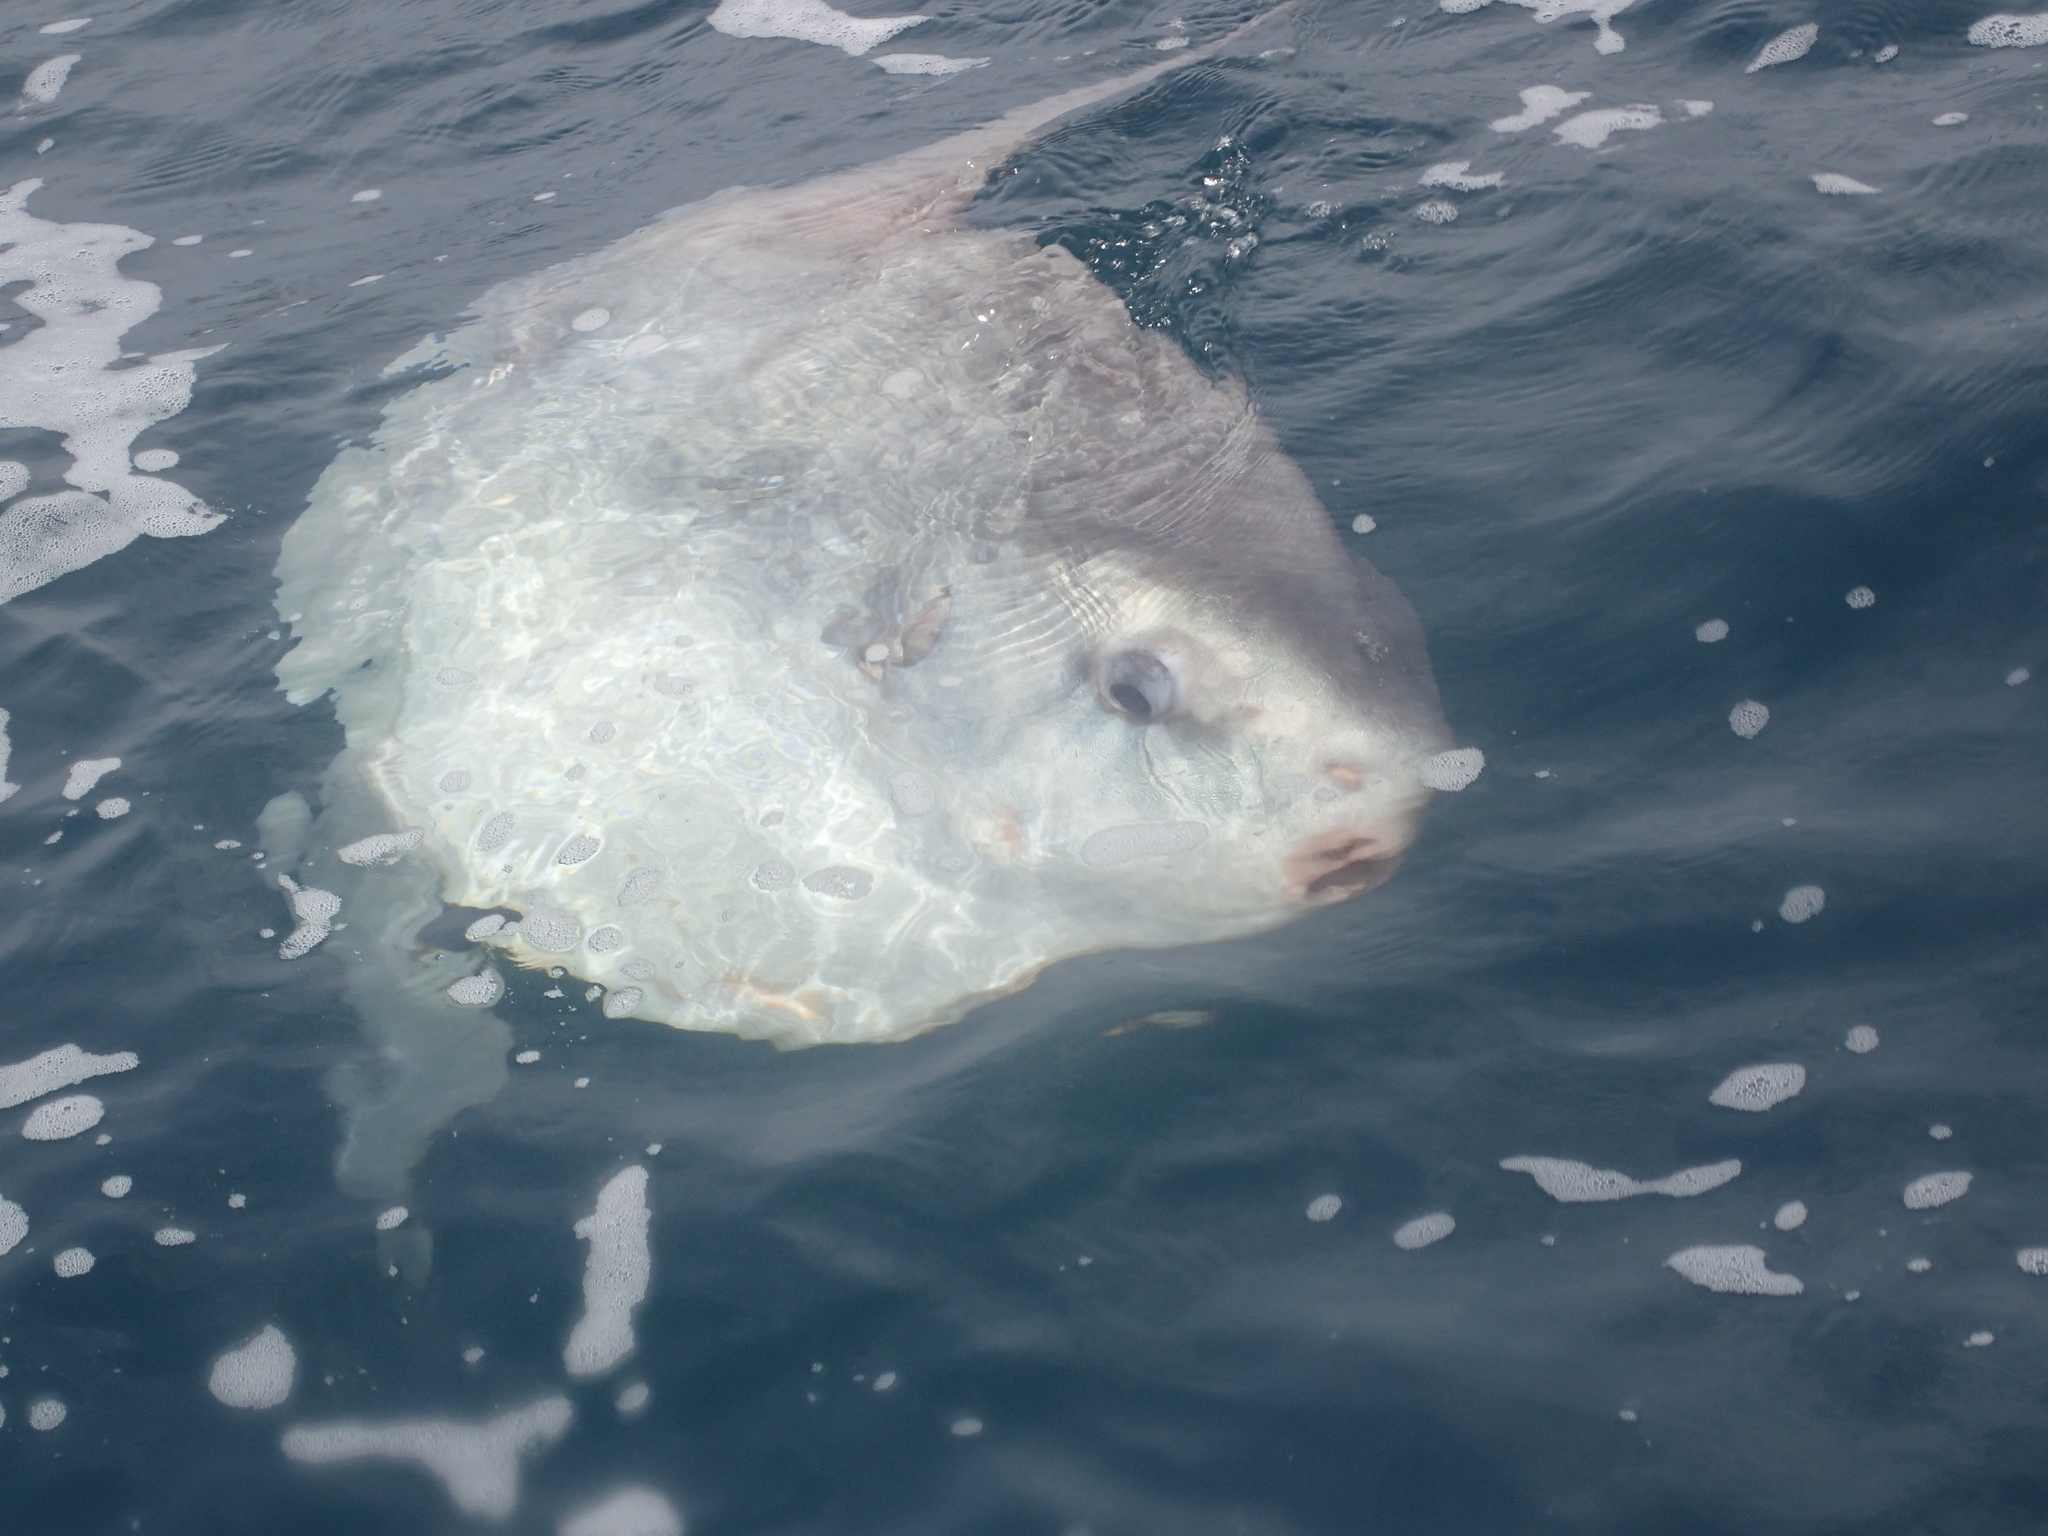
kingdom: Animalia
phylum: Chordata
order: Tetraodontiformes
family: Molidae
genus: Mola
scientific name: Mola mola
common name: Ocean sunfish
